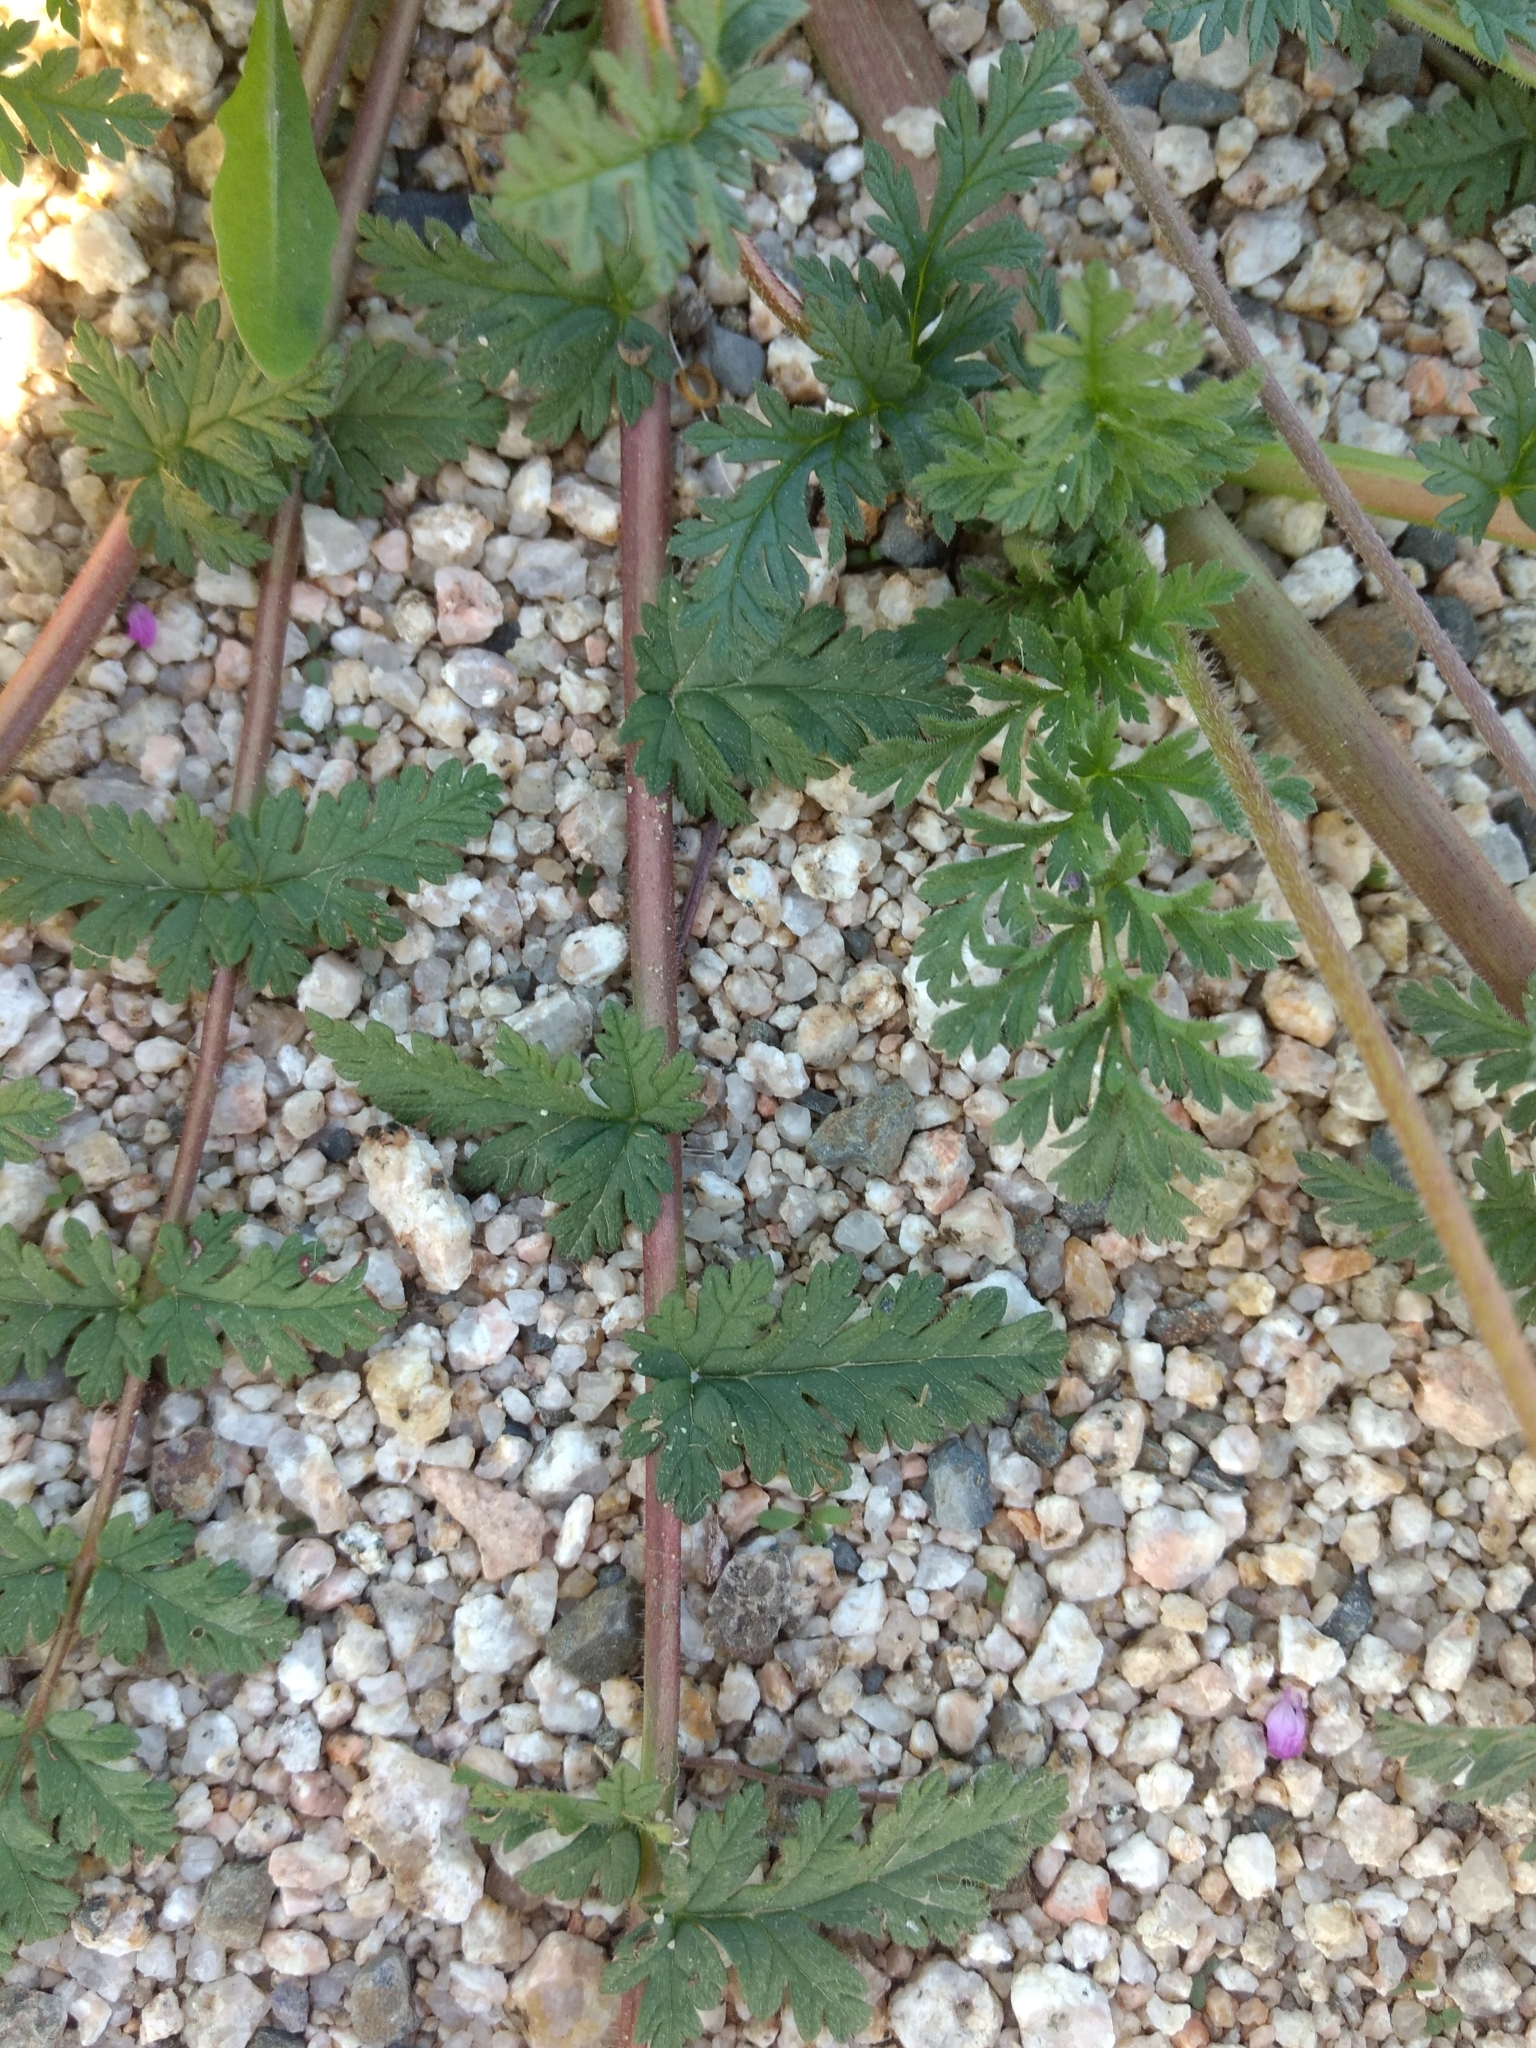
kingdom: Plantae
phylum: Tracheophyta
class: Magnoliopsida
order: Geraniales
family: Geraniaceae
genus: Erodium
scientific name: Erodium cicutarium
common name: Common stork's-bill
